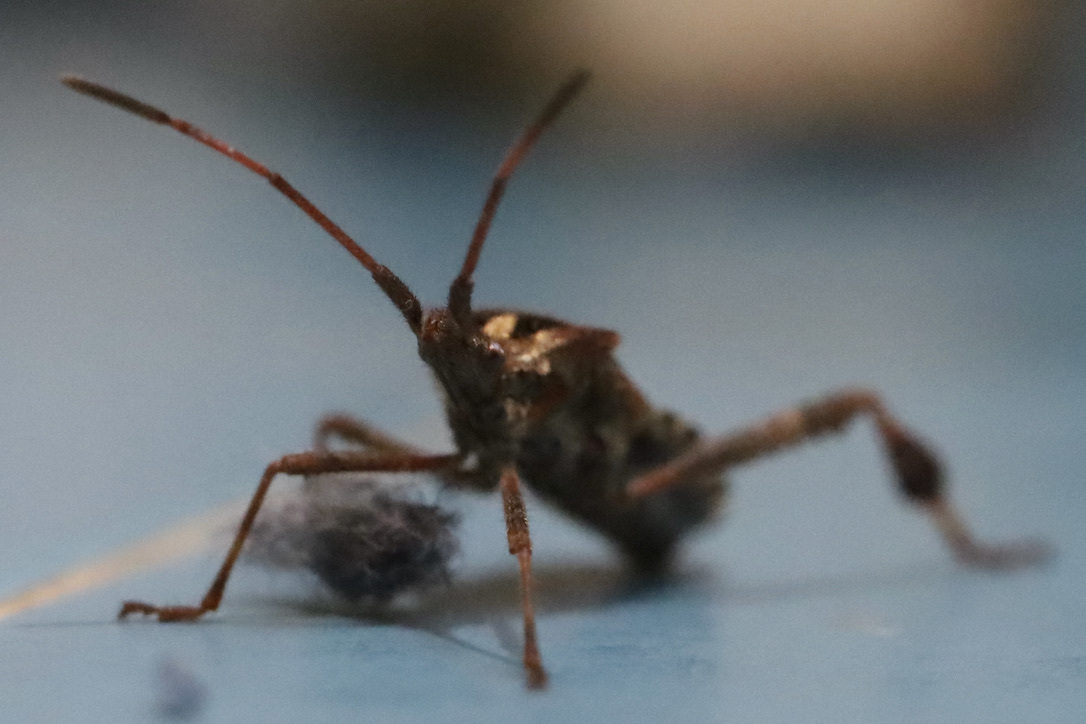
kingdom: Animalia
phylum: Arthropoda
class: Insecta
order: Hemiptera
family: Coreidae
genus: Leptoglossus
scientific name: Leptoglossus occidentalis
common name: Western conifer-seed bug
